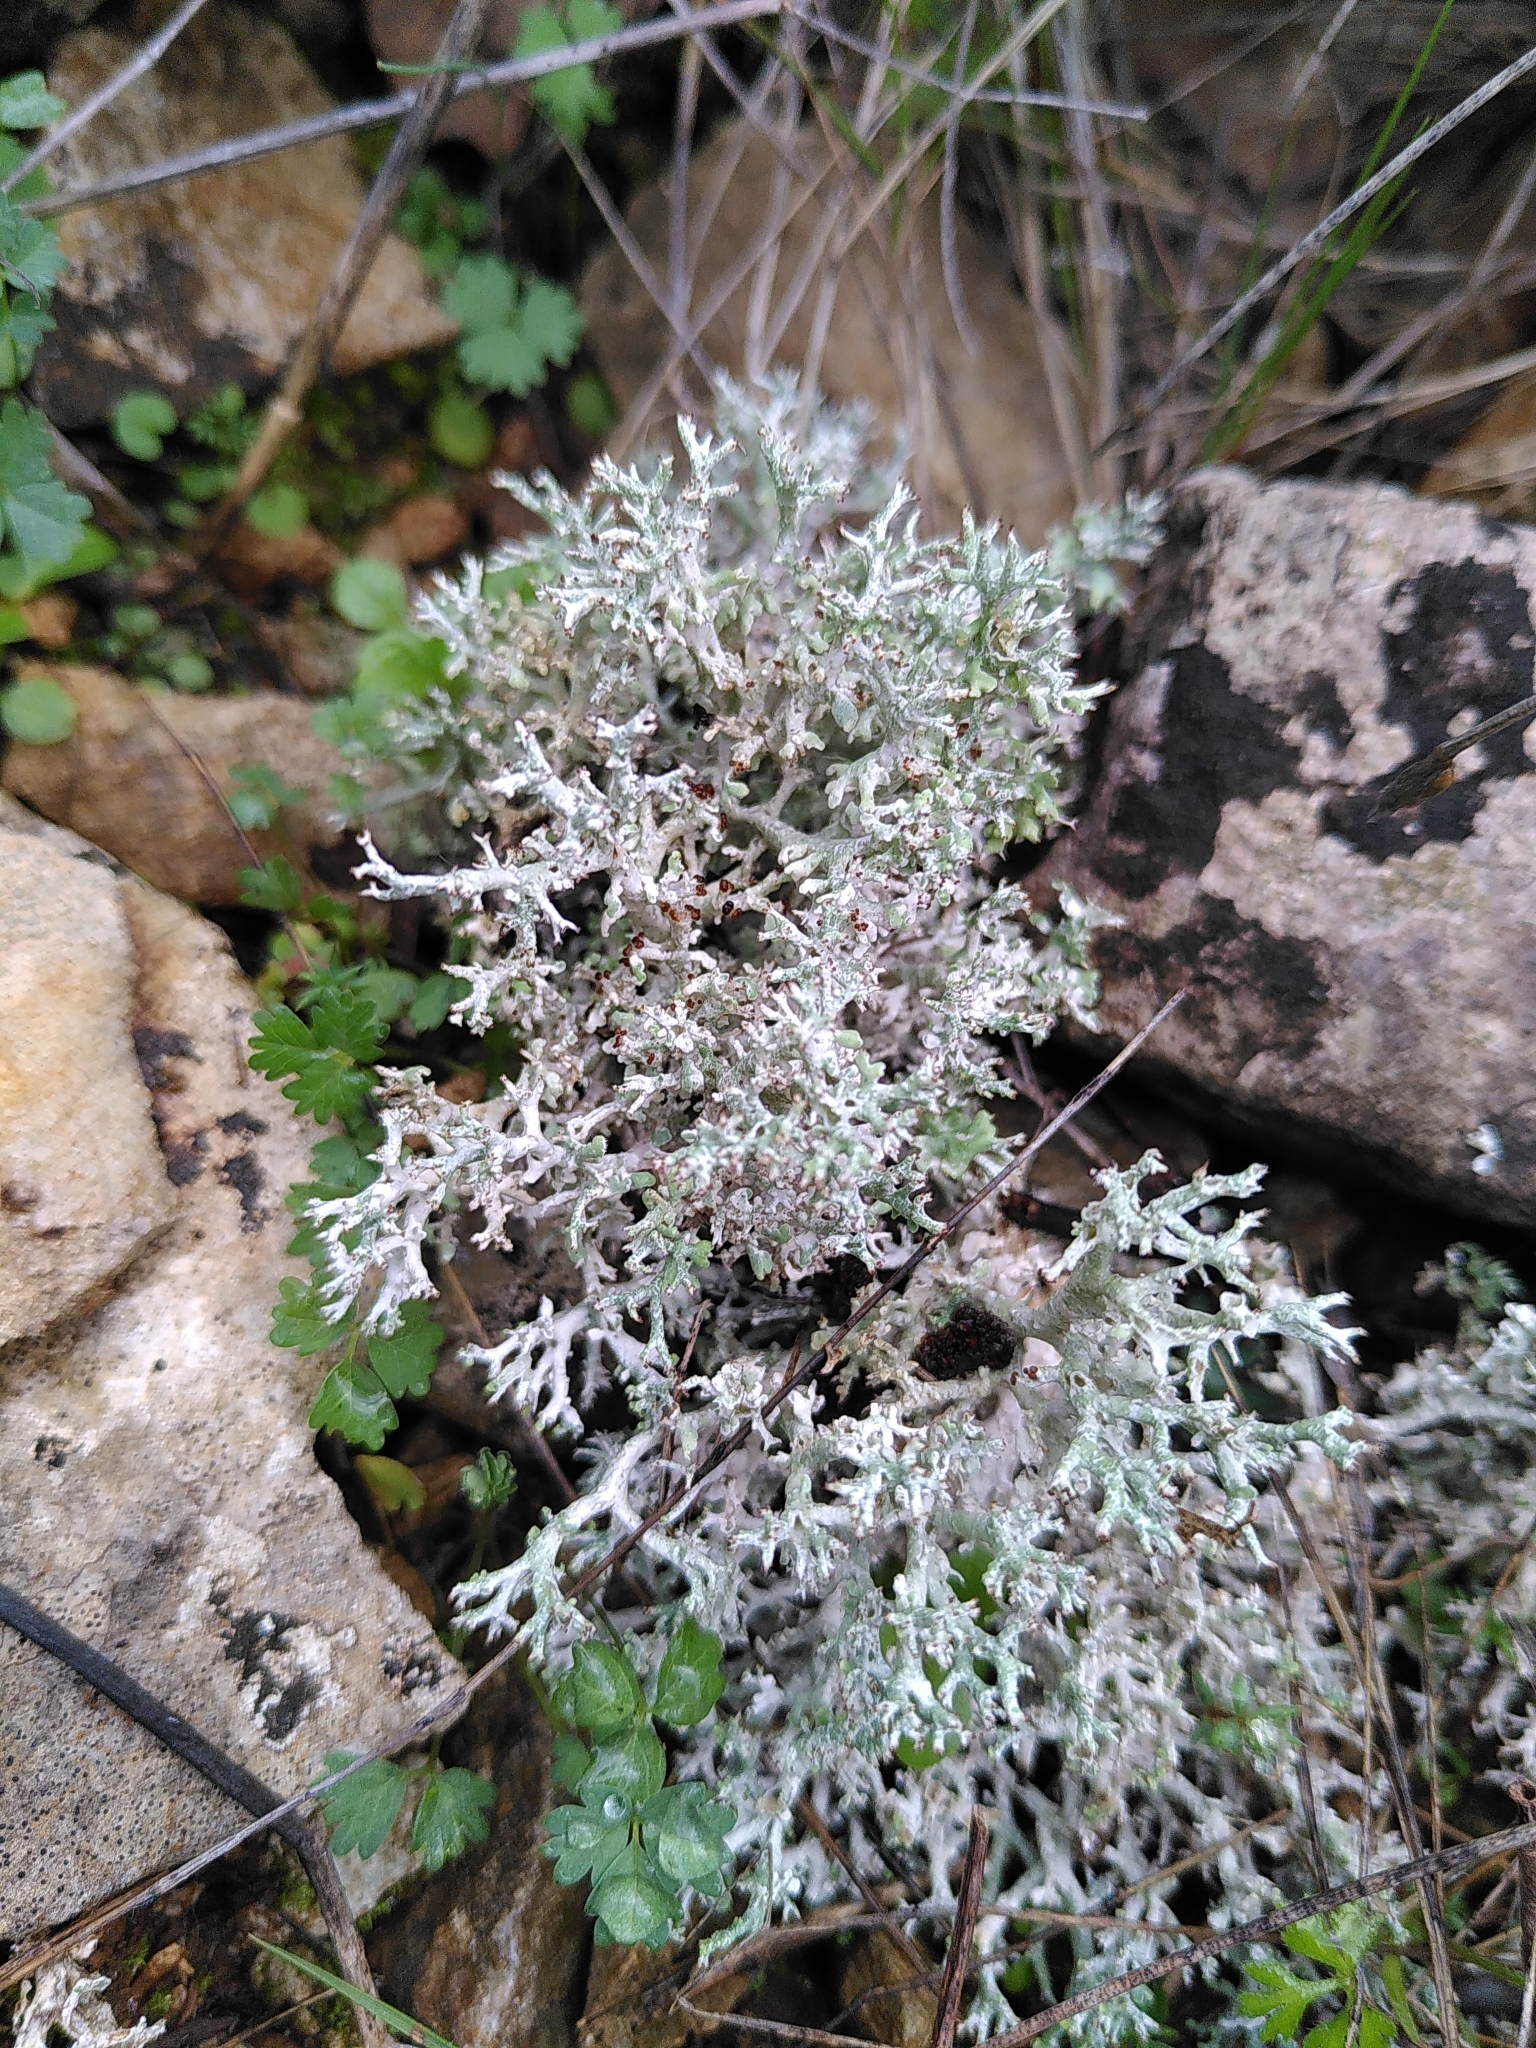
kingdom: Fungi
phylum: Ascomycota
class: Lecanoromycetes
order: Lecanorales
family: Cladoniaceae
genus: Cladonia
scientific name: Cladonia rangiformis
